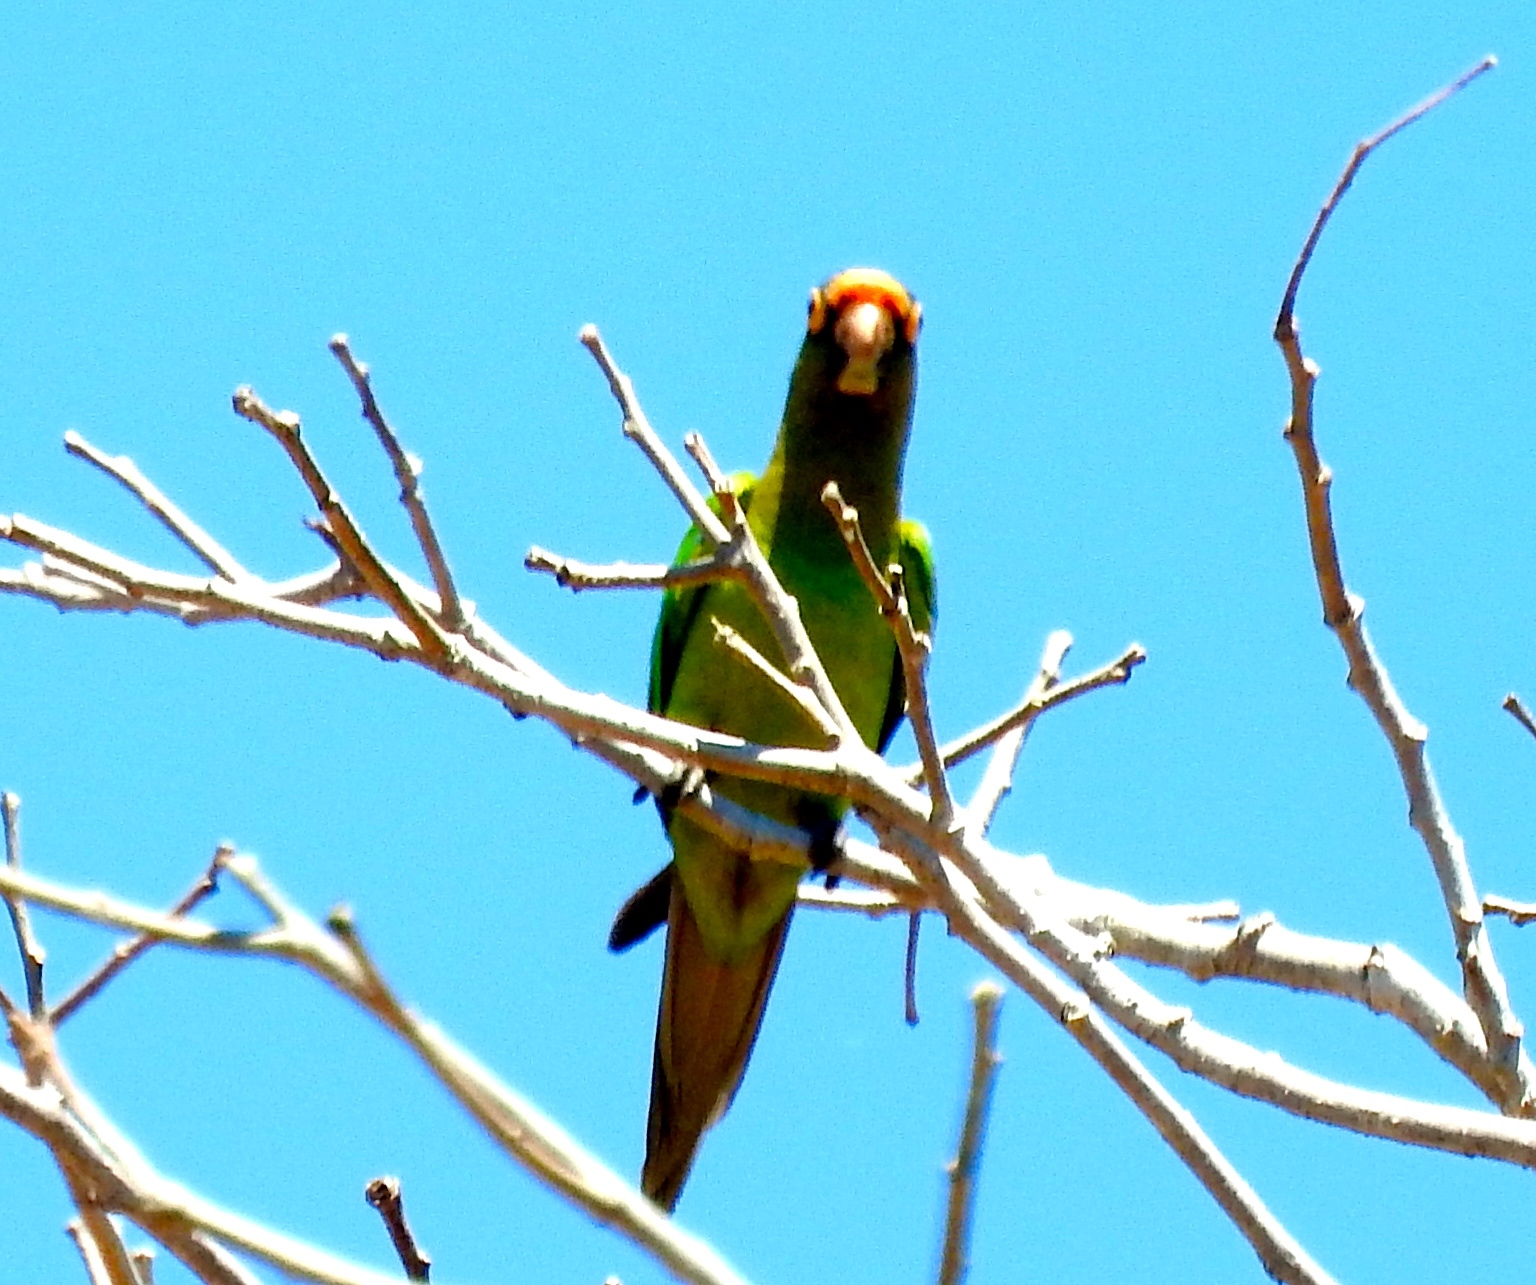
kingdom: Animalia
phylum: Chordata
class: Aves
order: Psittaciformes
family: Psittacidae
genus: Aratinga
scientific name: Aratinga canicularis
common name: Orange-fronted parakeet
